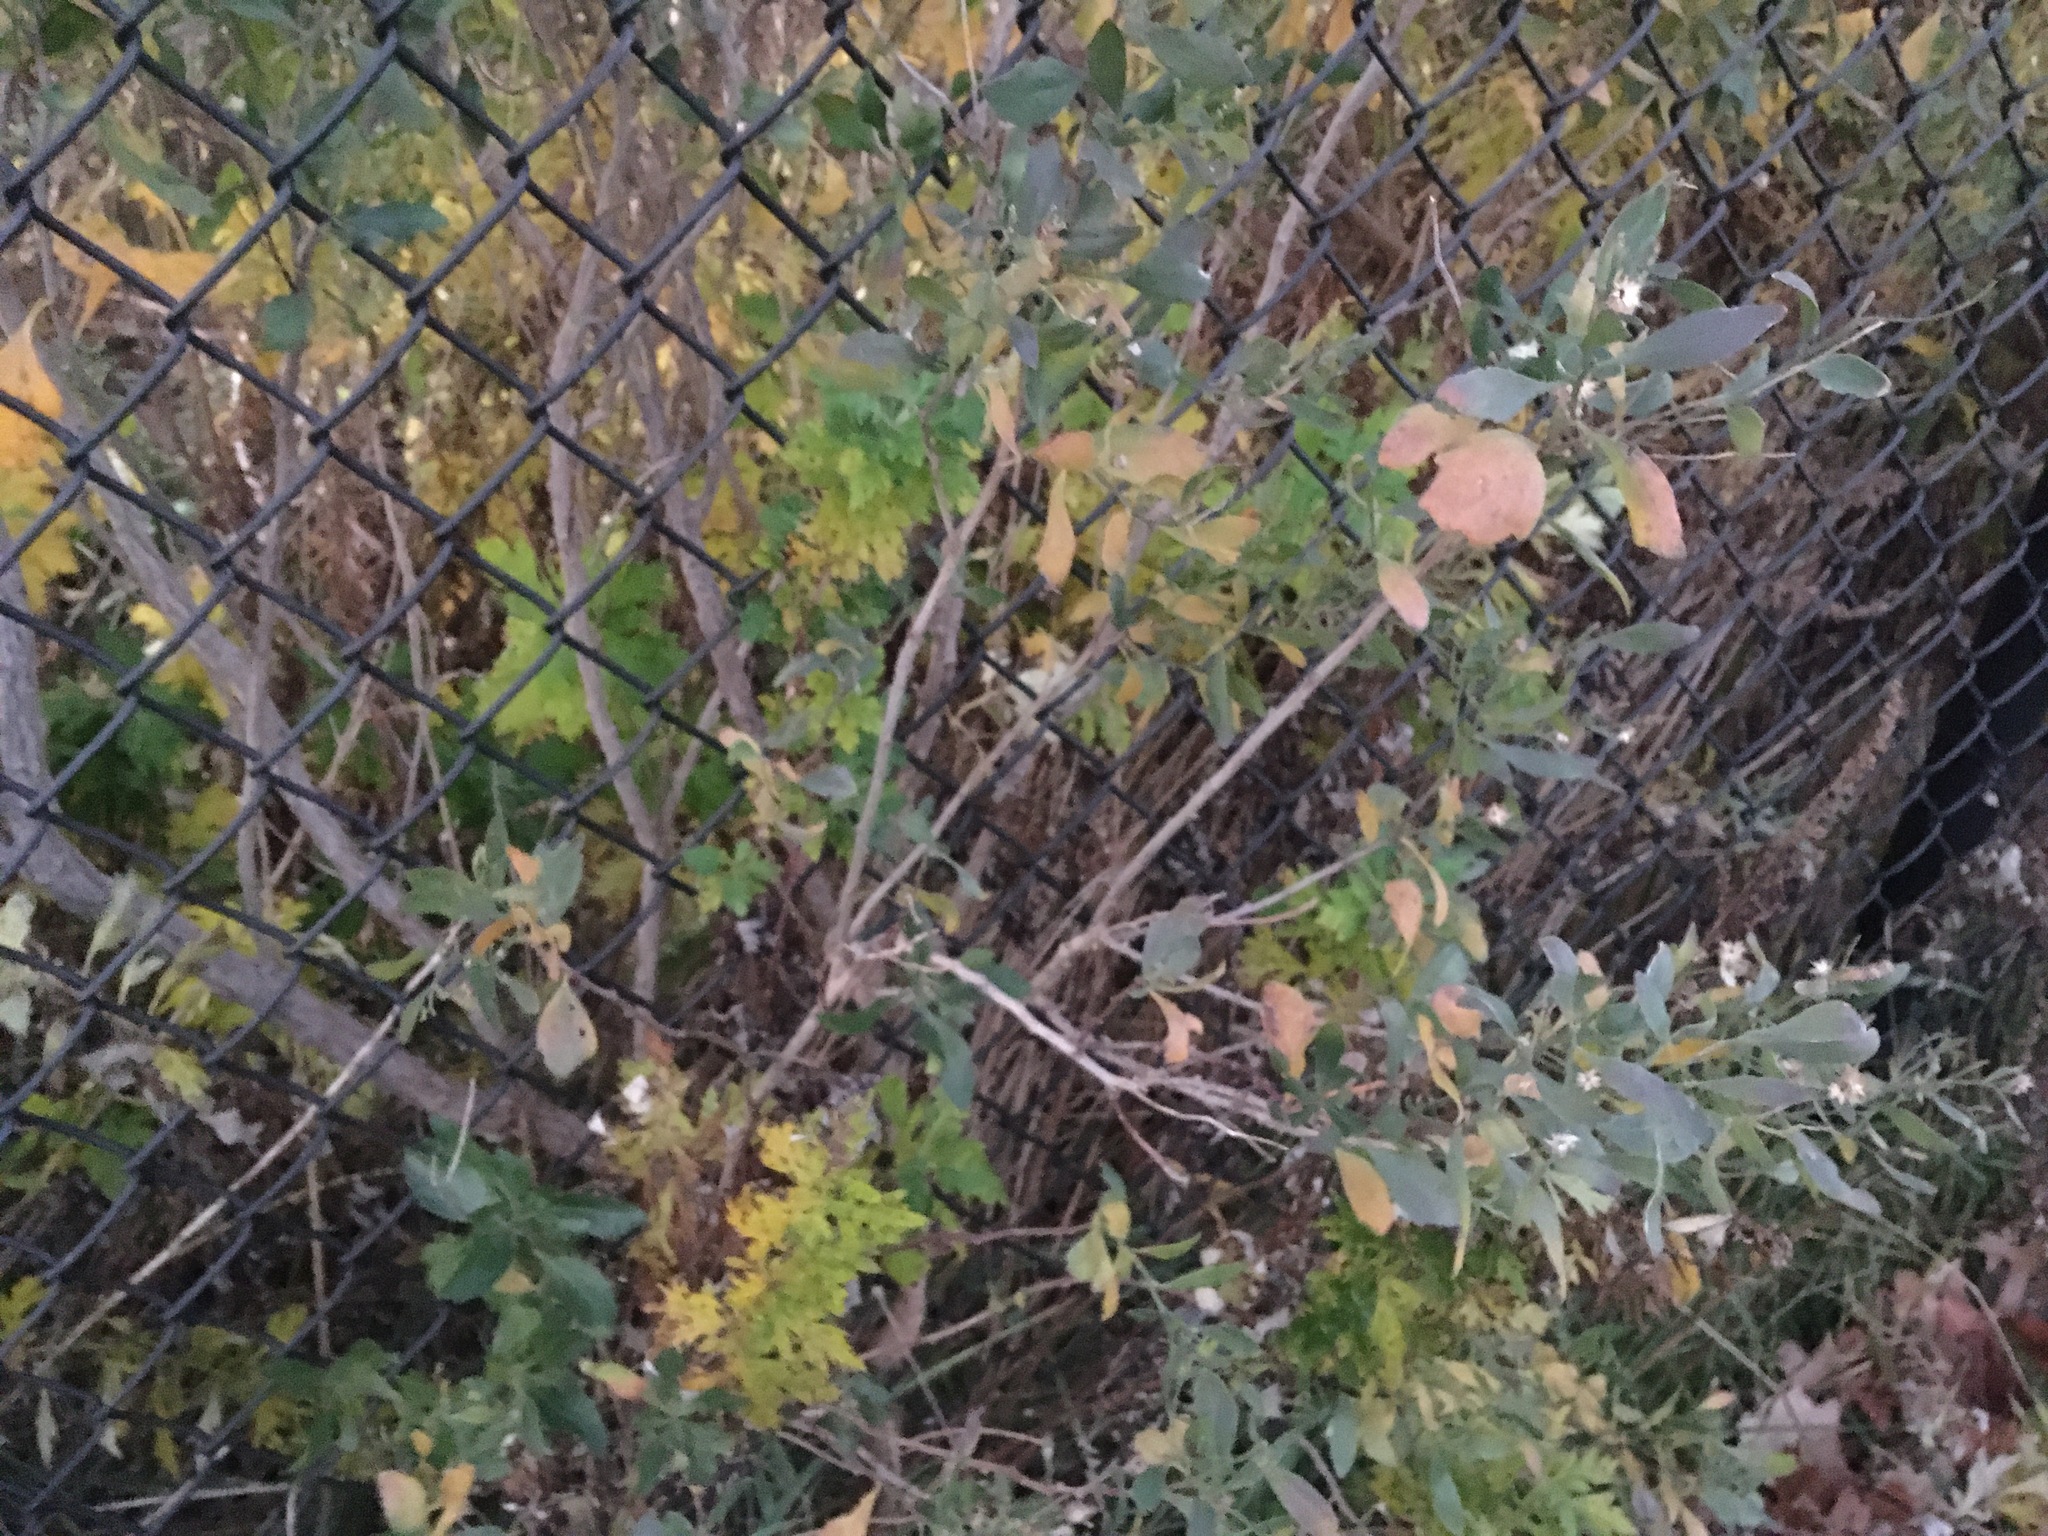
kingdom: Plantae
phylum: Tracheophyta
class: Magnoliopsida
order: Asterales
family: Asteraceae
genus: Baccharis
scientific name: Baccharis halimifolia
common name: Eastern baccharis
